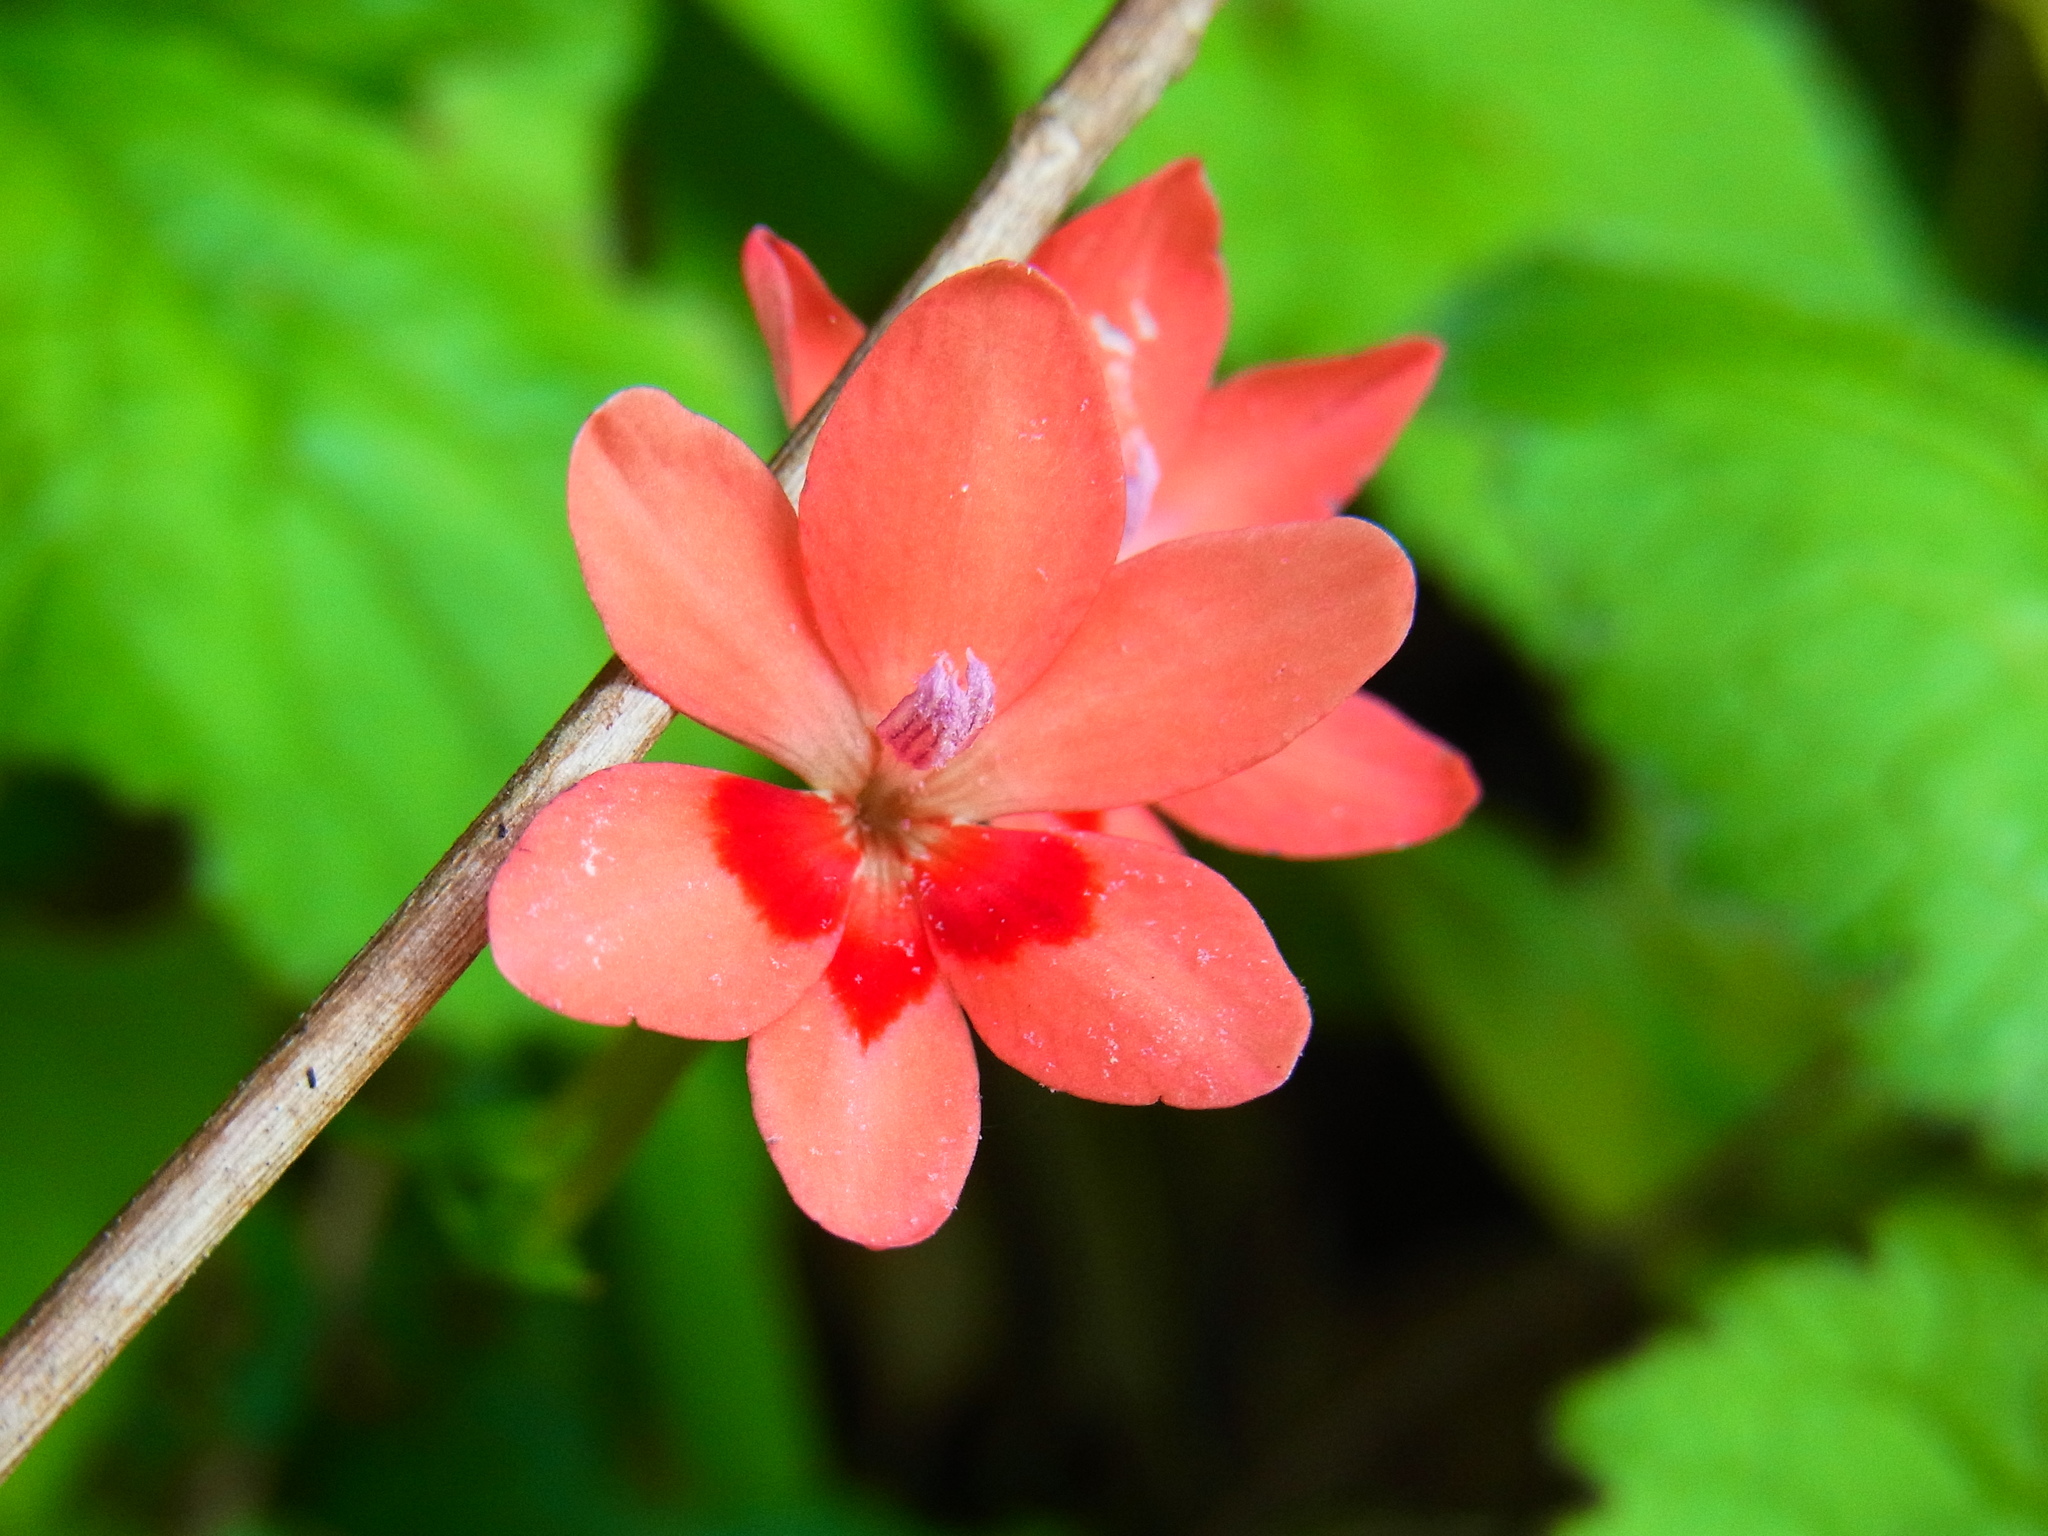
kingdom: Plantae
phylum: Tracheophyta
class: Liliopsida
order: Asparagales
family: Iridaceae
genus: Freesia
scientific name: Freesia laxa
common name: False freesia
